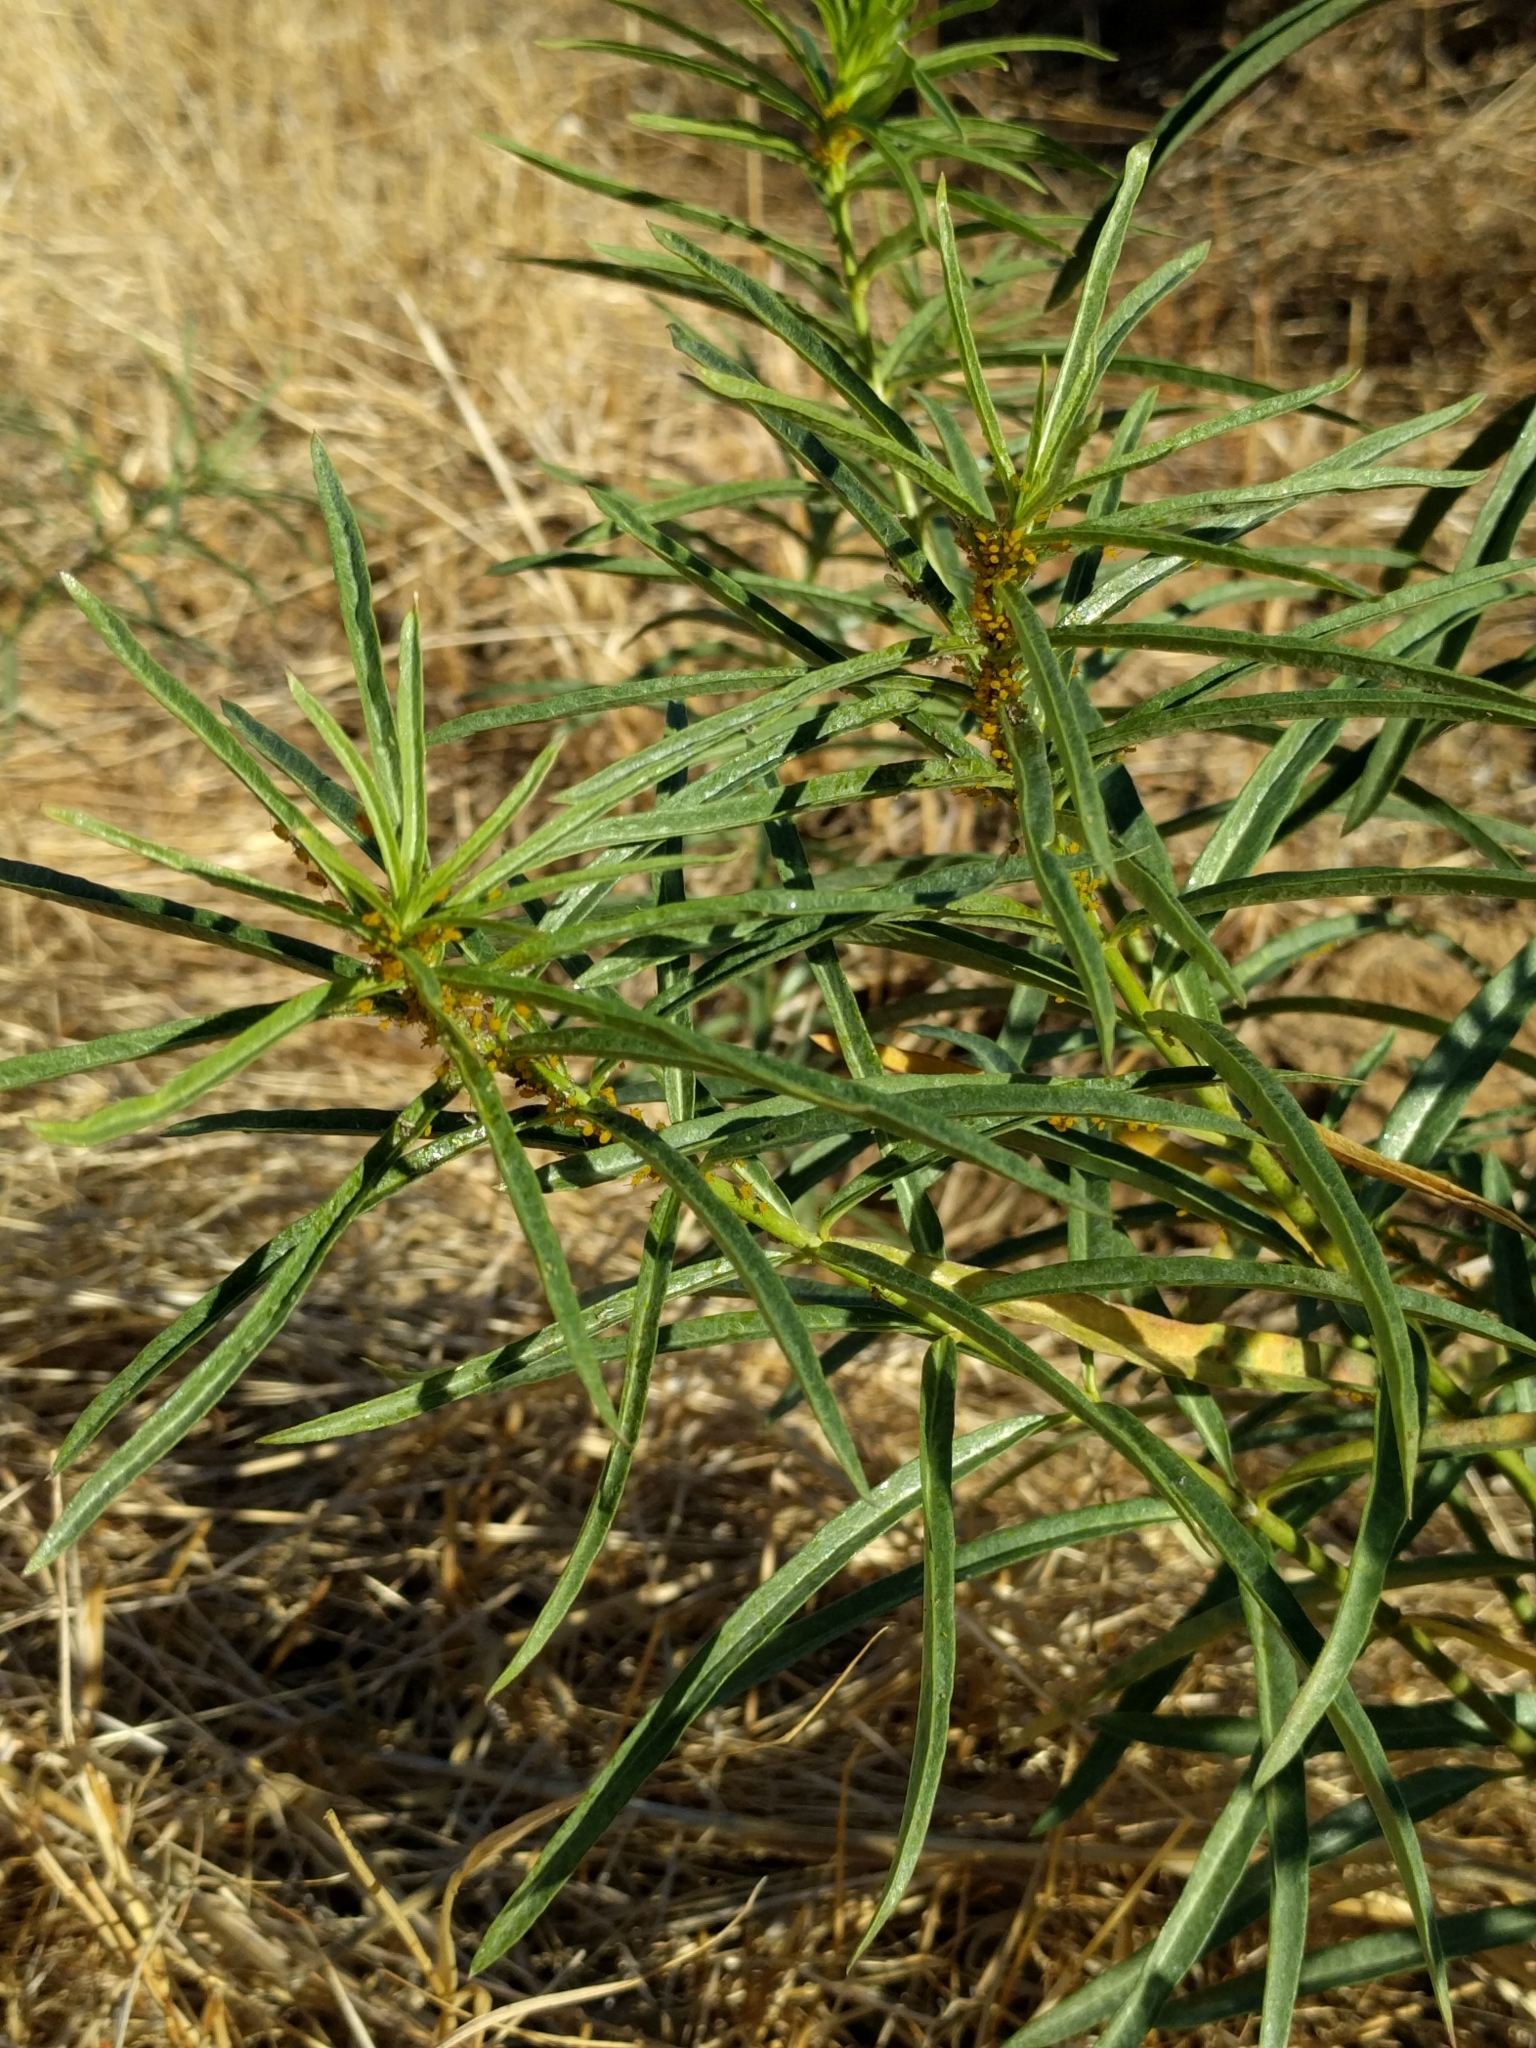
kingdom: Plantae
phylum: Tracheophyta
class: Magnoliopsida
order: Gentianales
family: Apocynaceae
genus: Asclepias
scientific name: Asclepias fascicularis
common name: Mexican milkweed
